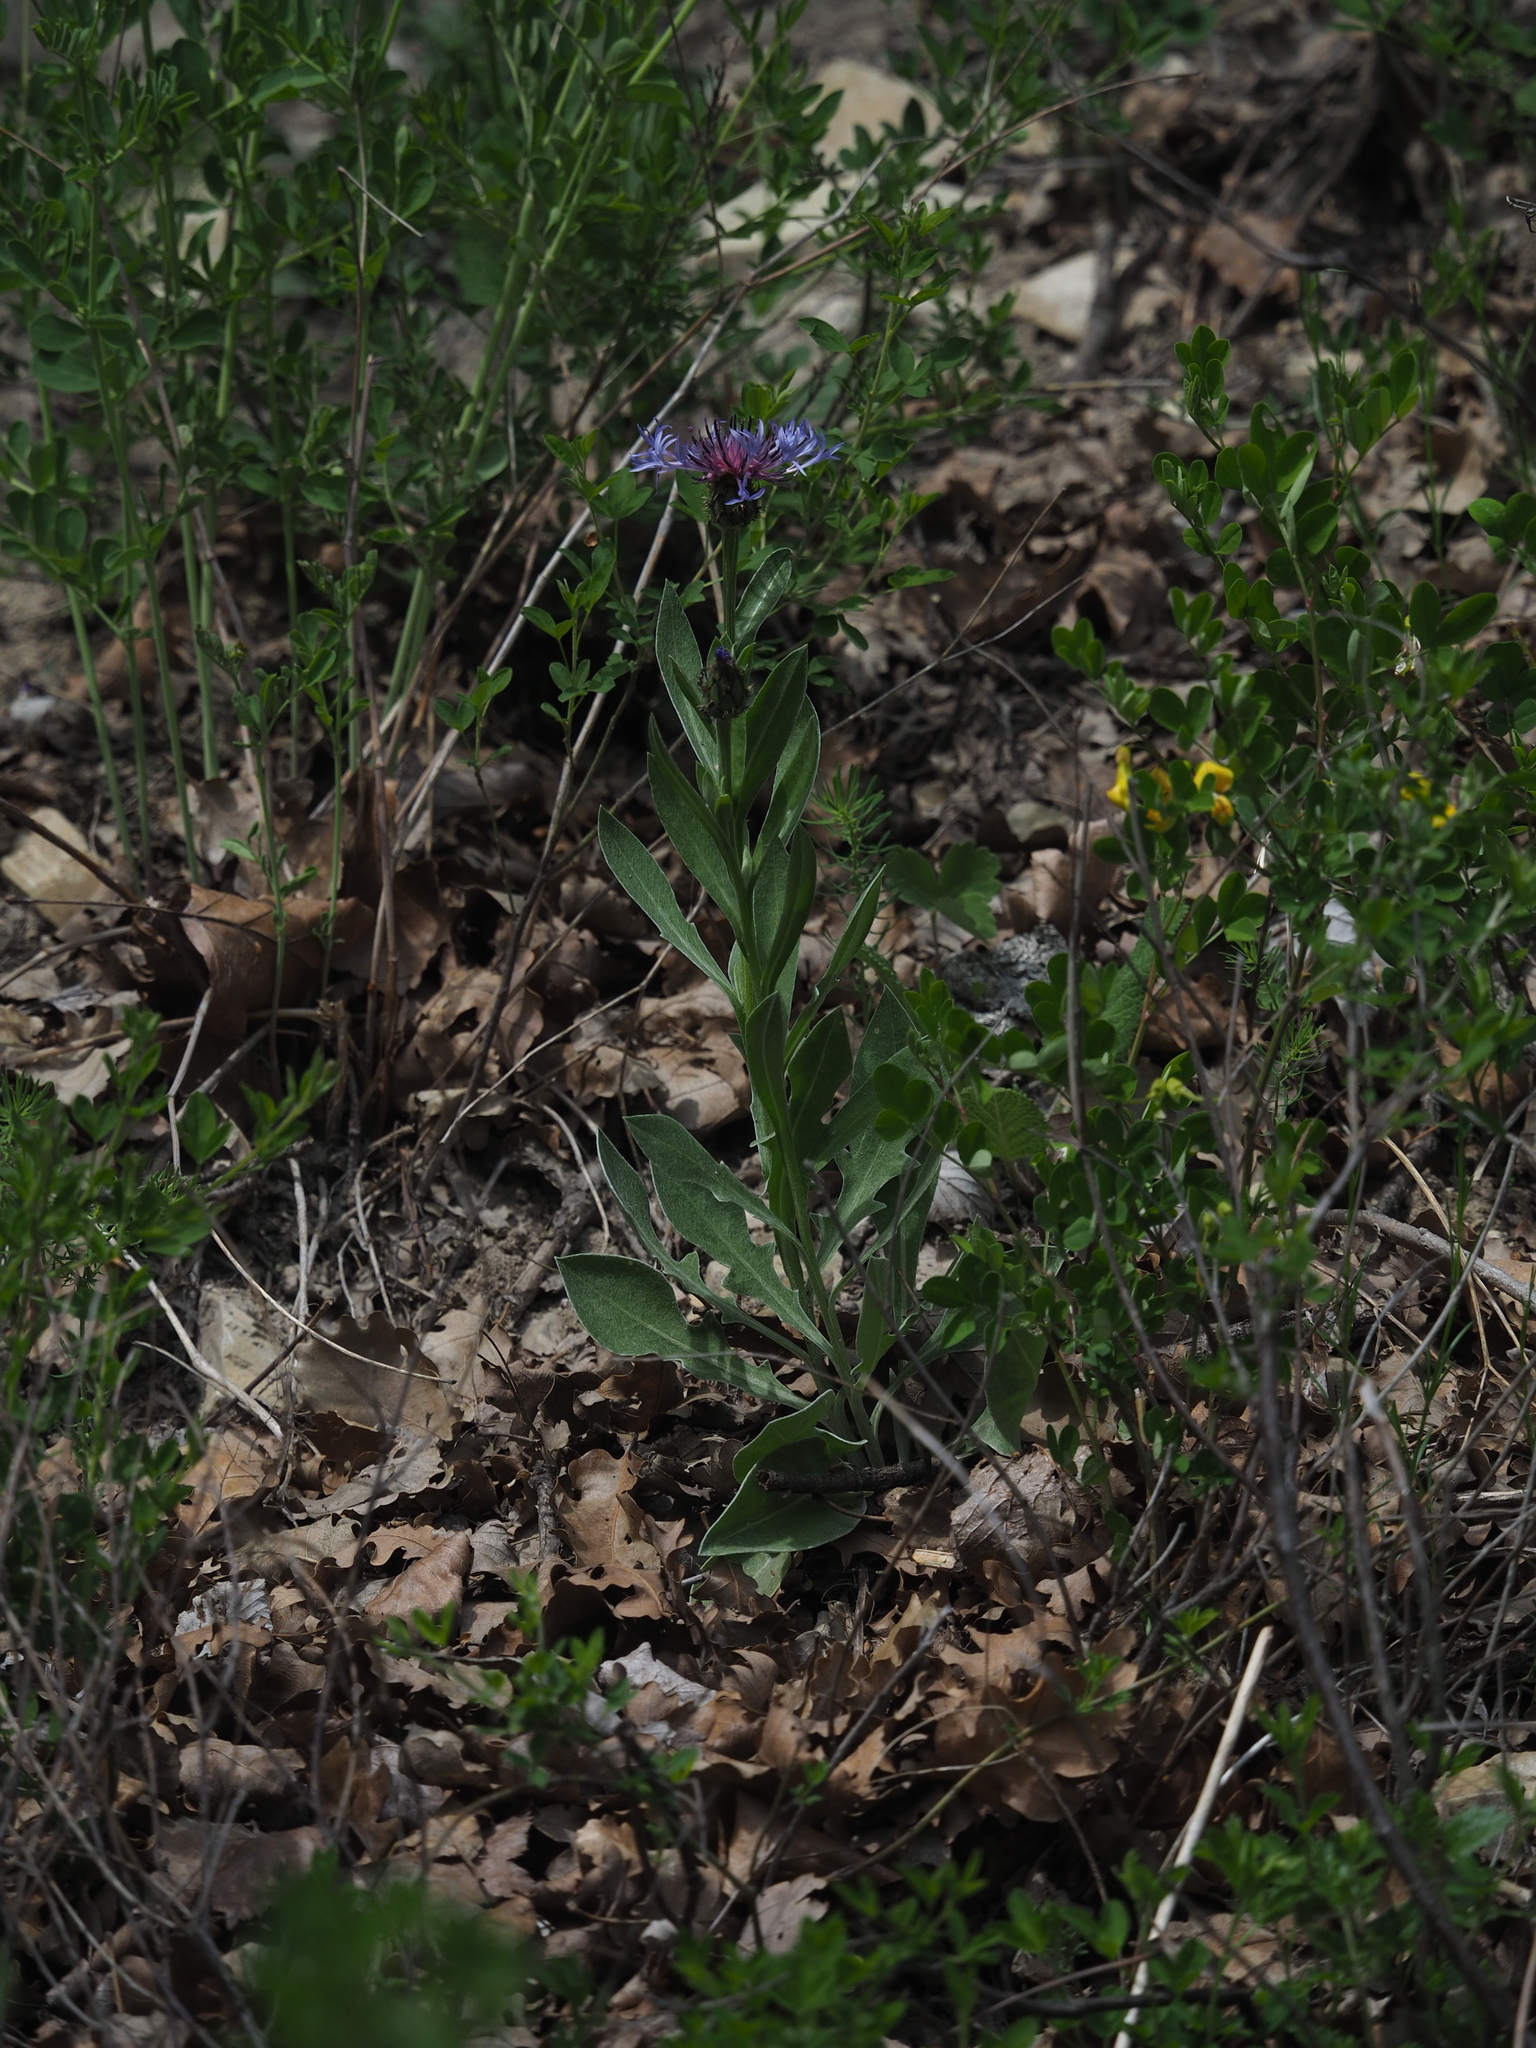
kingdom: Plantae
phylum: Tracheophyta
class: Magnoliopsida
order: Asterales
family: Asteraceae
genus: Centaurea
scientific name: Centaurea triumfettii
